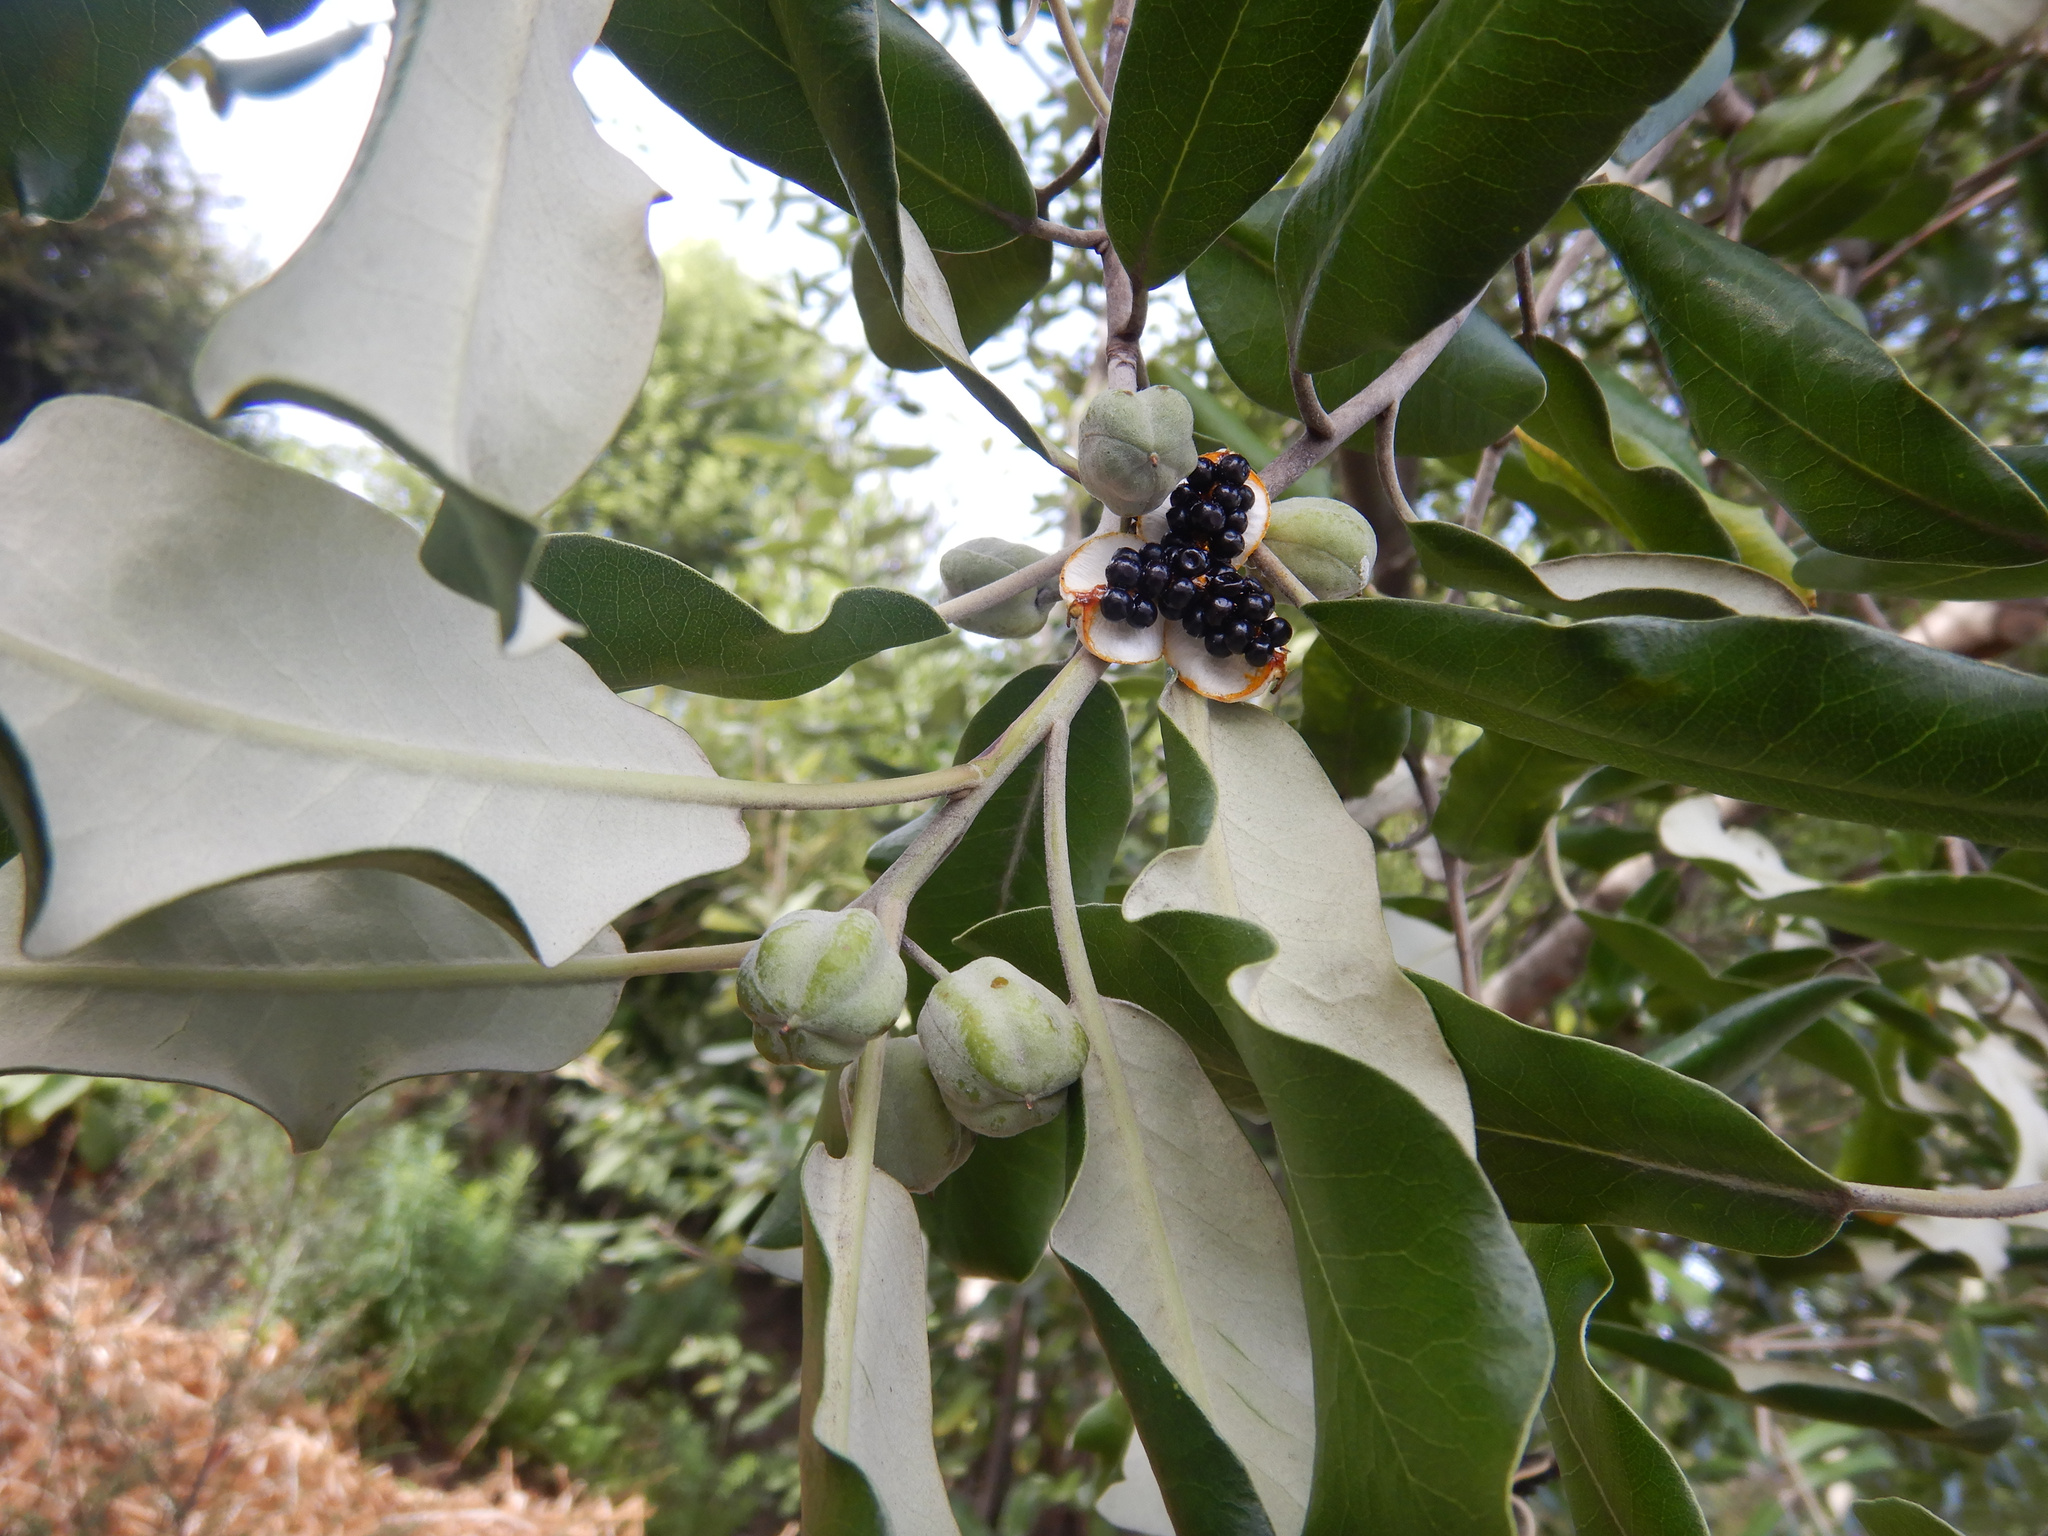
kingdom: Plantae
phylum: Tracheophyta
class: Magnoliopsida
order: Apiales
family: Pittosporaceae
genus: Pittosporum
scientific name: Pittosporum ralphii
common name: Ralph's desertwillow
